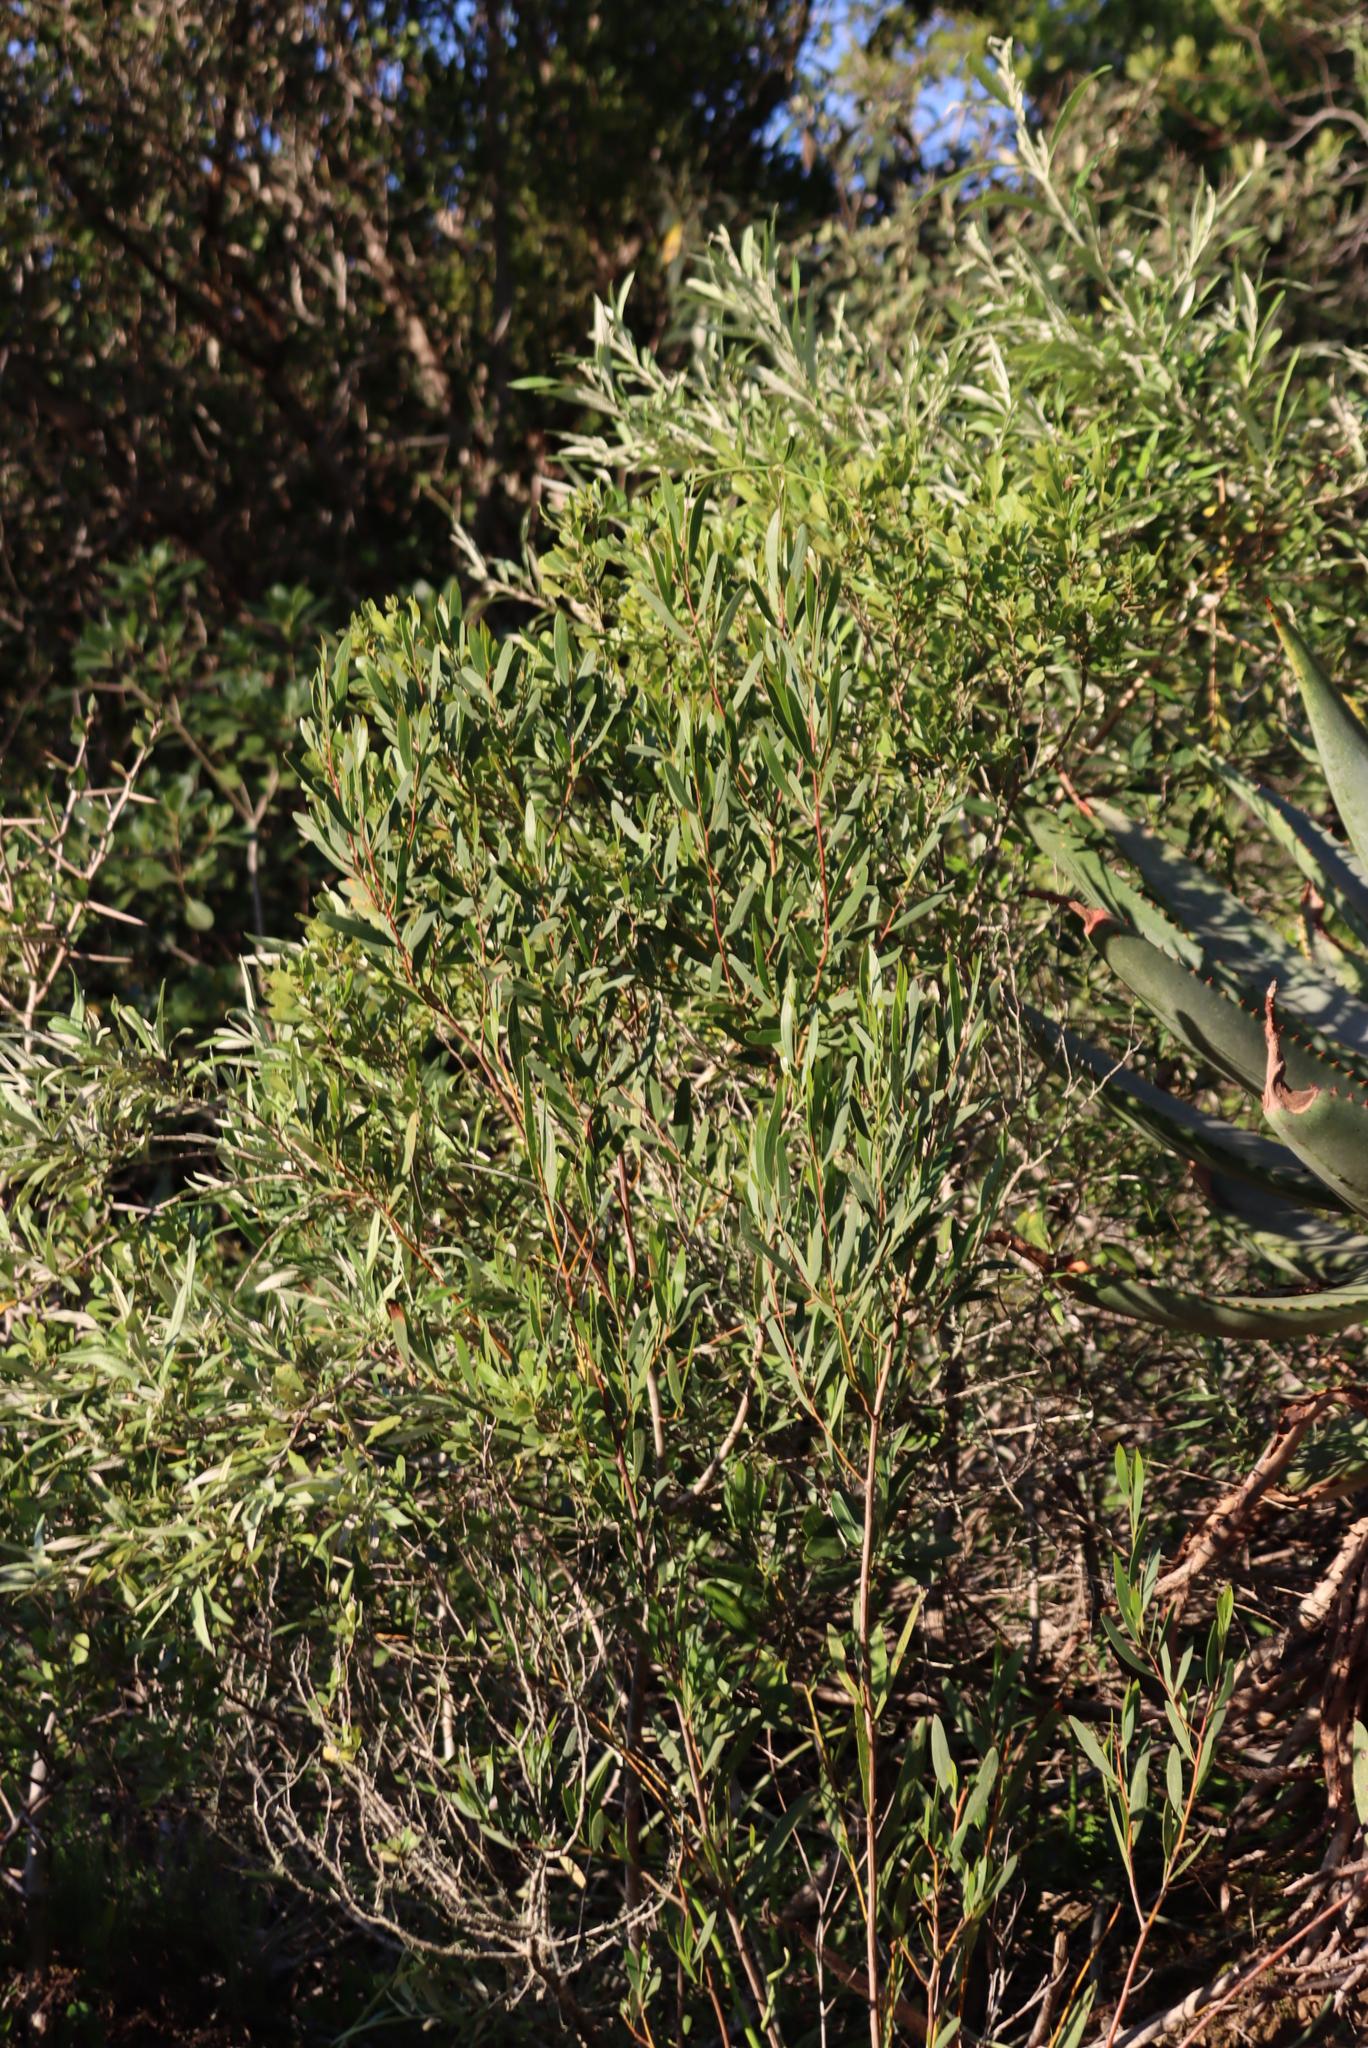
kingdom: Plantae
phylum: Tracheophyta
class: Magnoliopsida
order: Fabales
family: Fabaceae
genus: Acacia
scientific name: Acacia cyclops
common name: Coastal wattle
